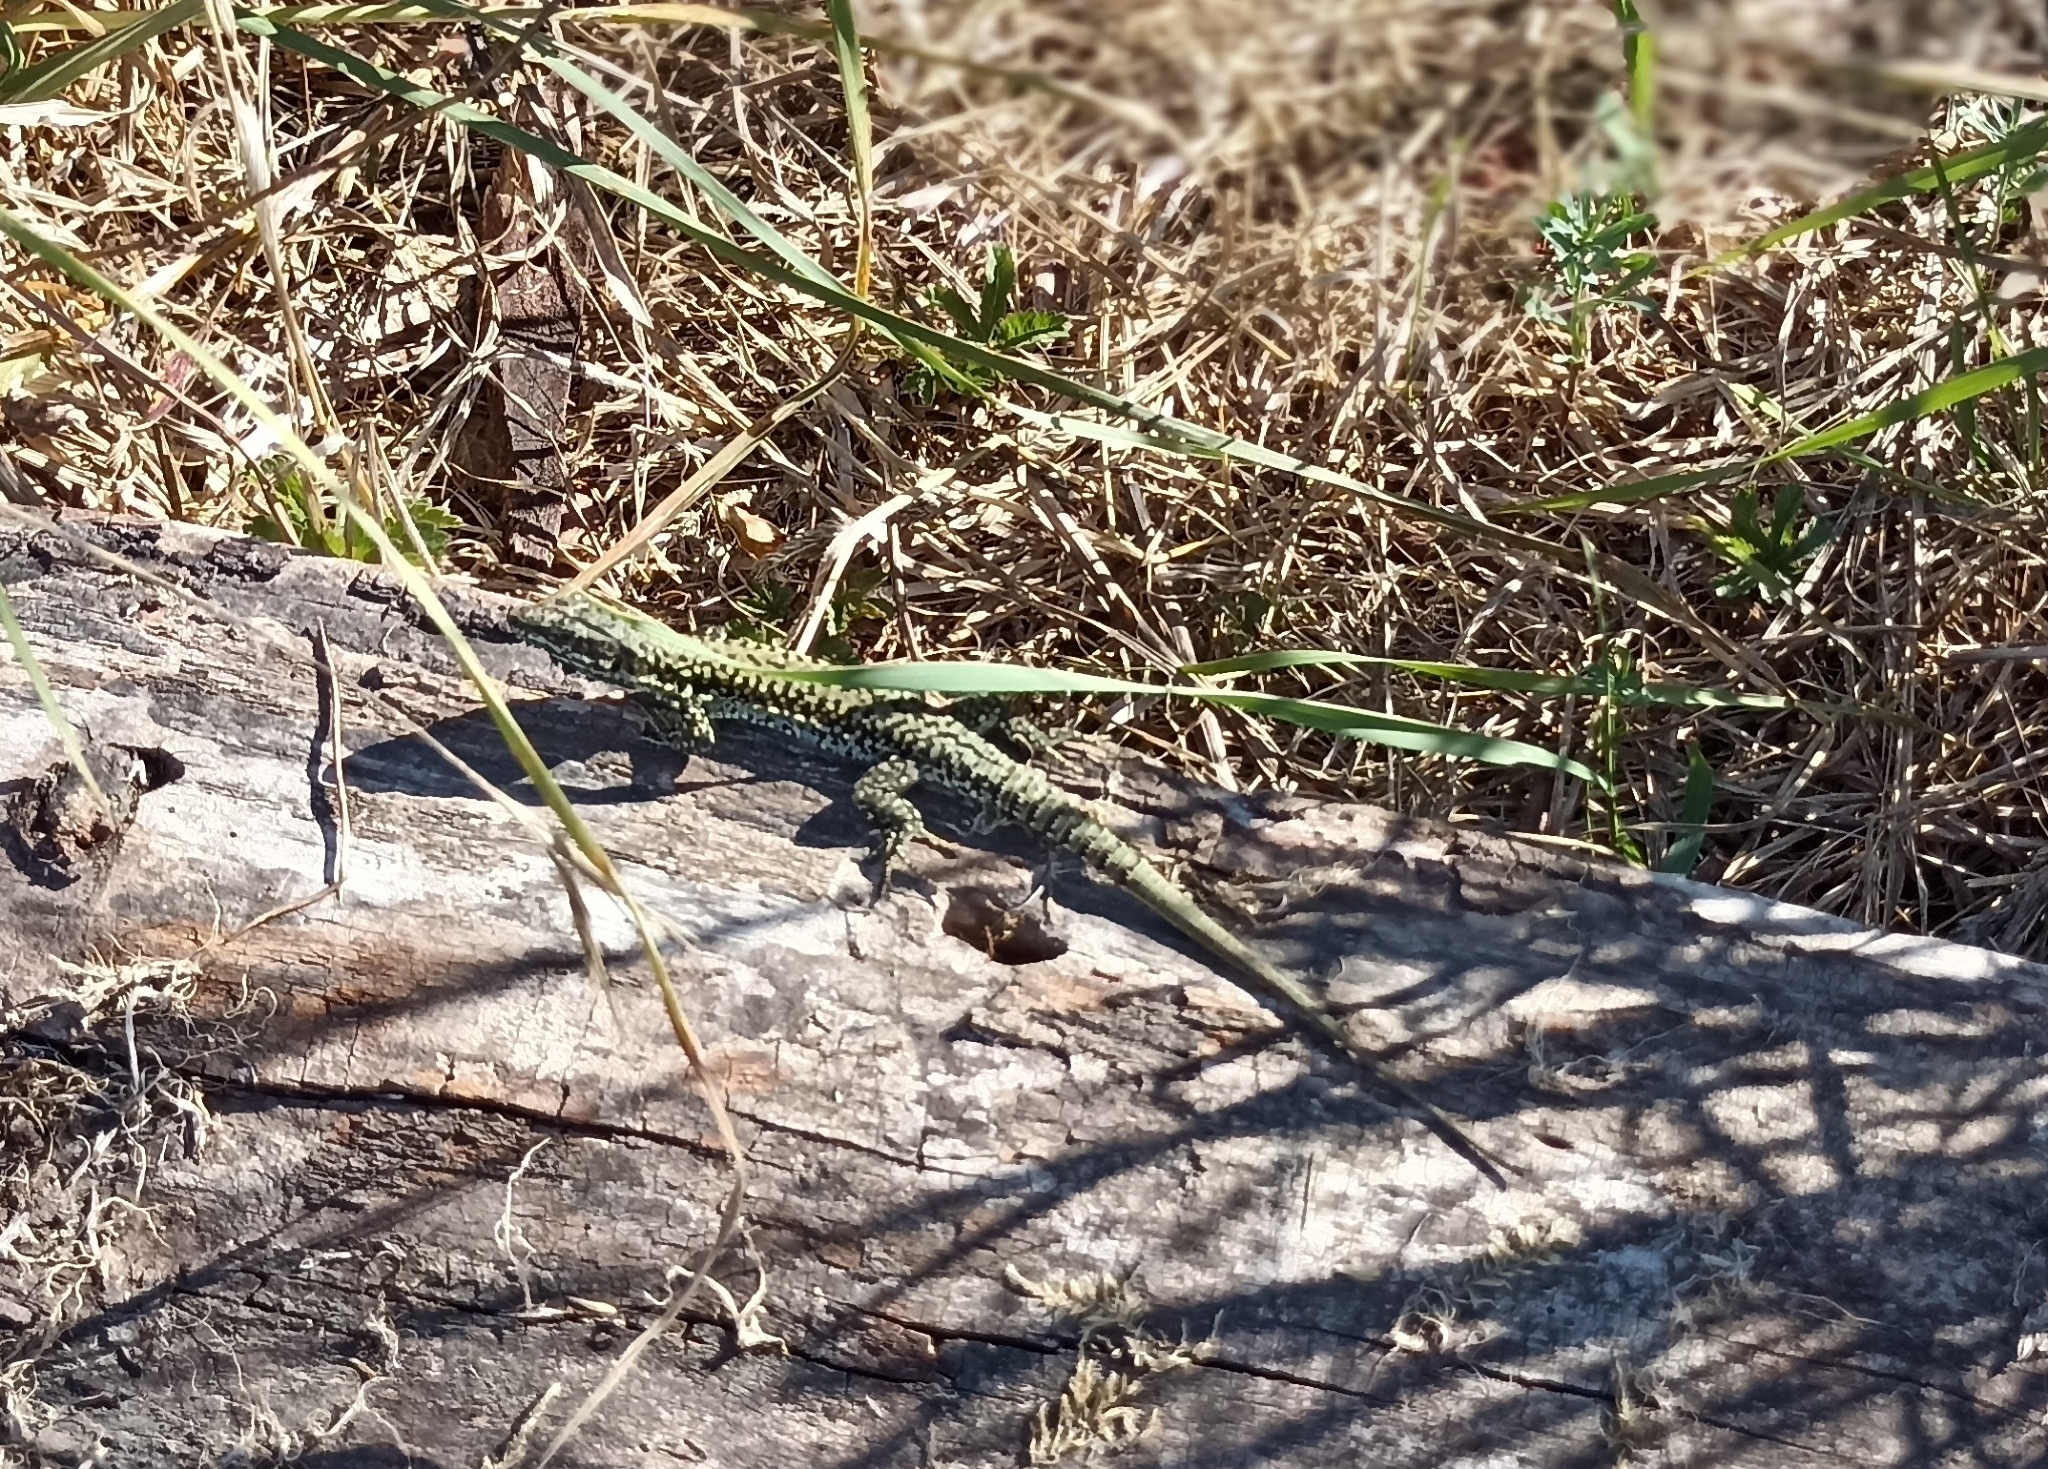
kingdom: Animalia
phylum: Chordata
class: Squamata
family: Lacertidae
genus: Podarcis
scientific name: Podarcis muralis
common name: Common wall lizard
